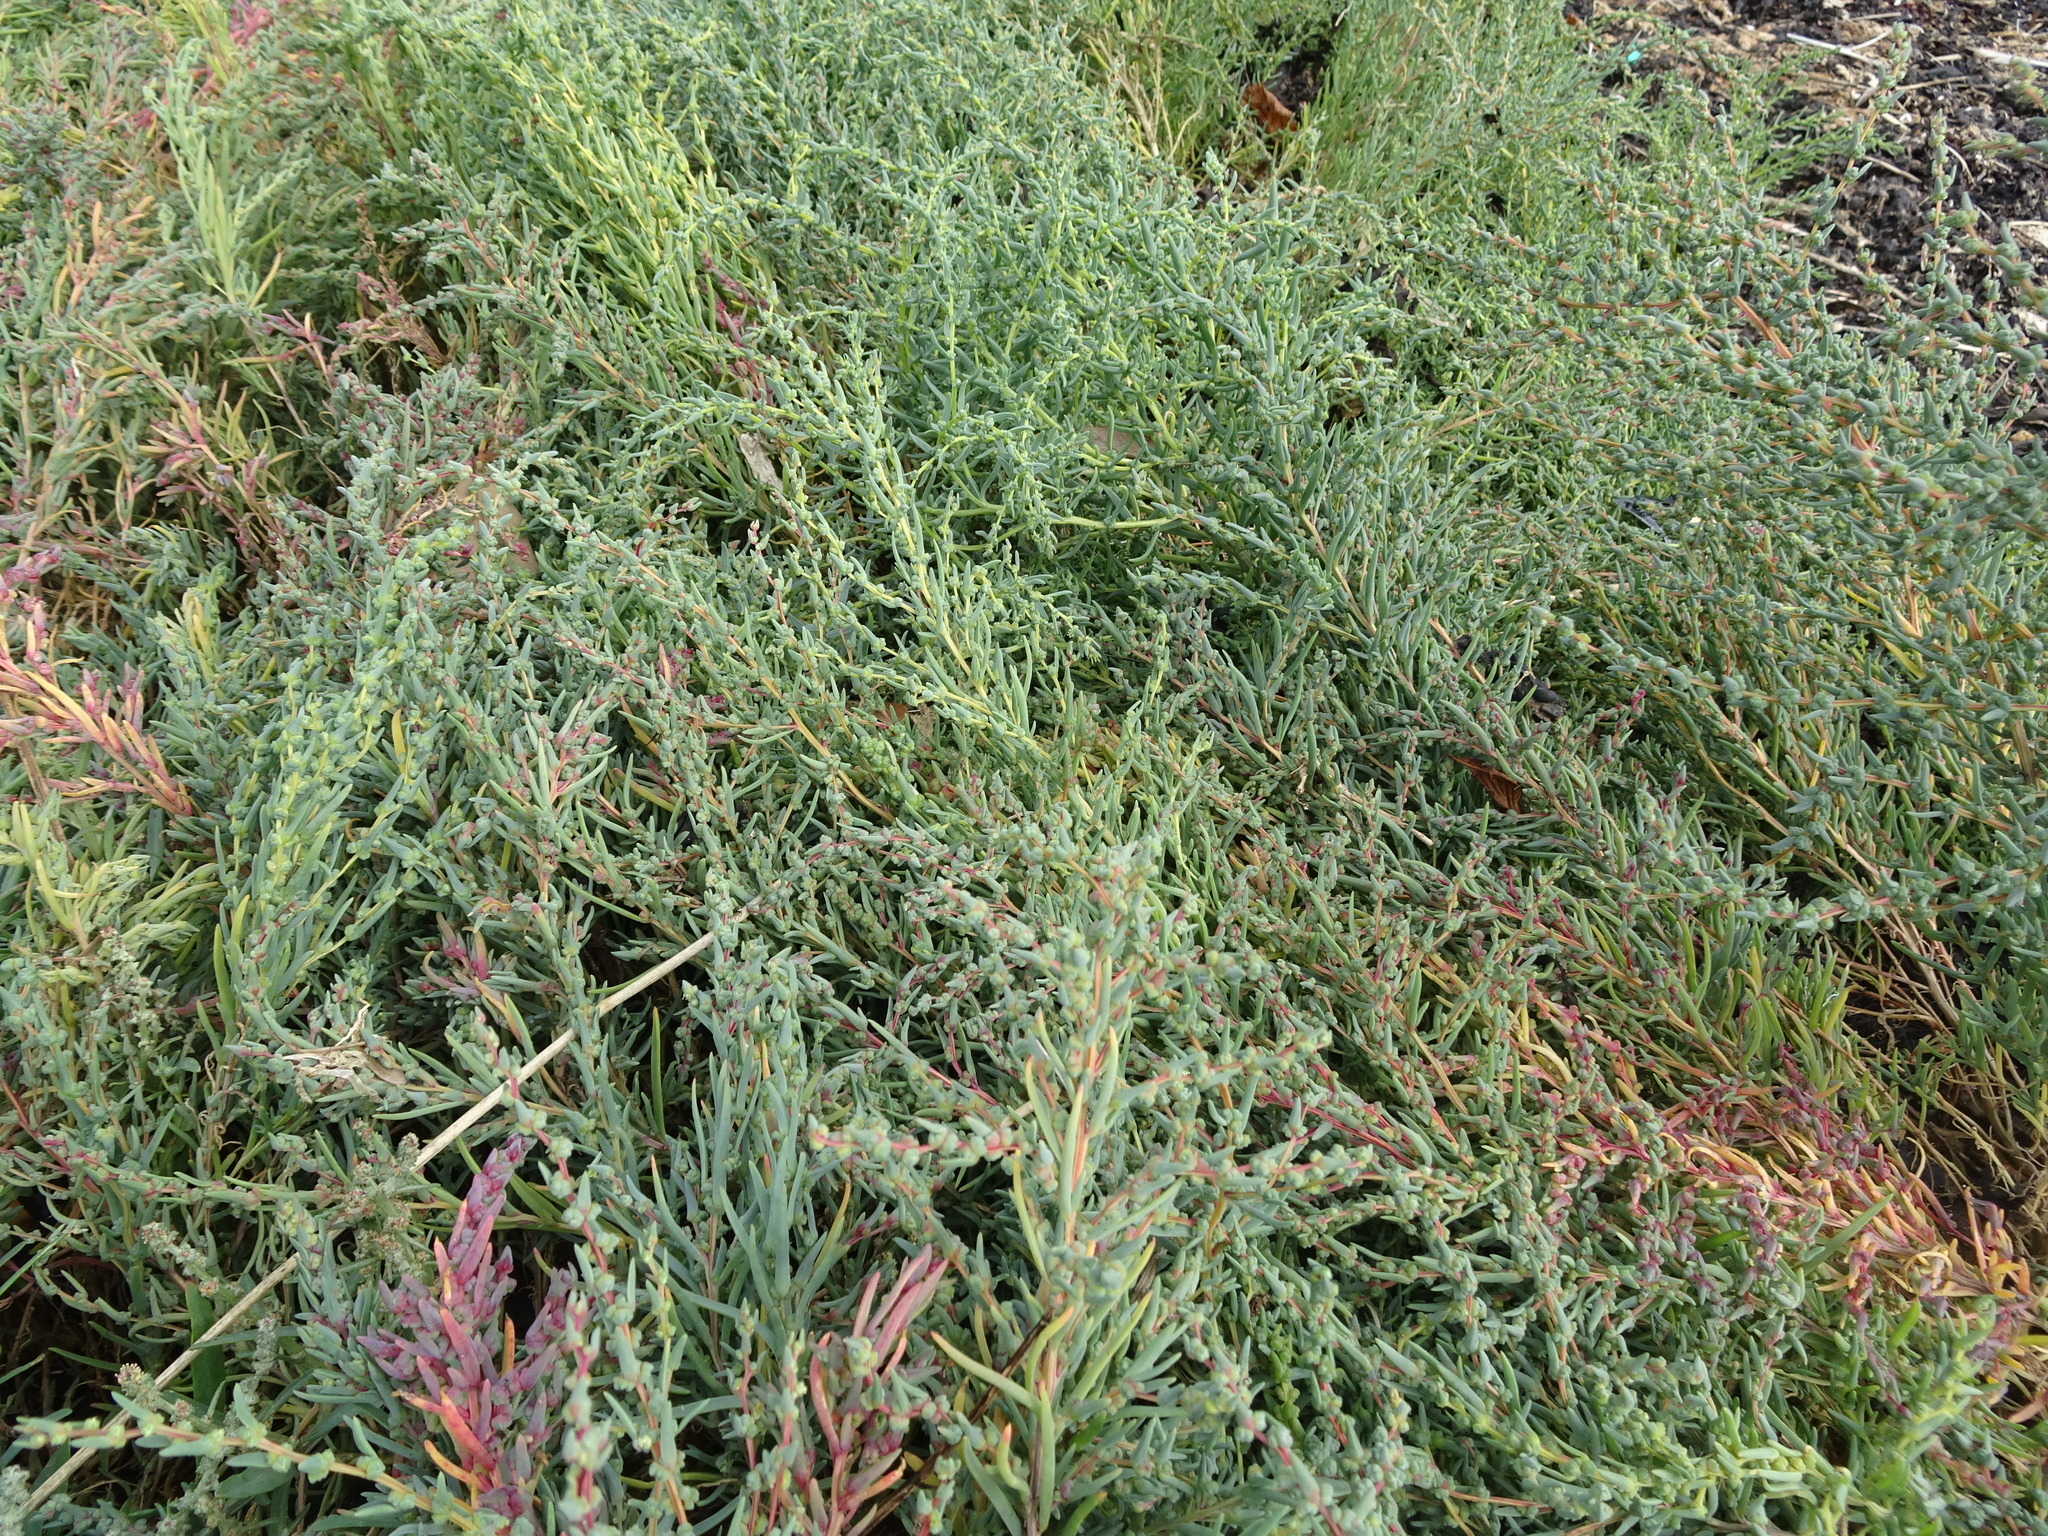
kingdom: Plantae
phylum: Tracheophyta
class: Magnoliopsida
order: Caryophyllales
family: Amaranthaceae
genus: Suaeda
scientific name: Suaeda maritima
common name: Annual sea-blite
